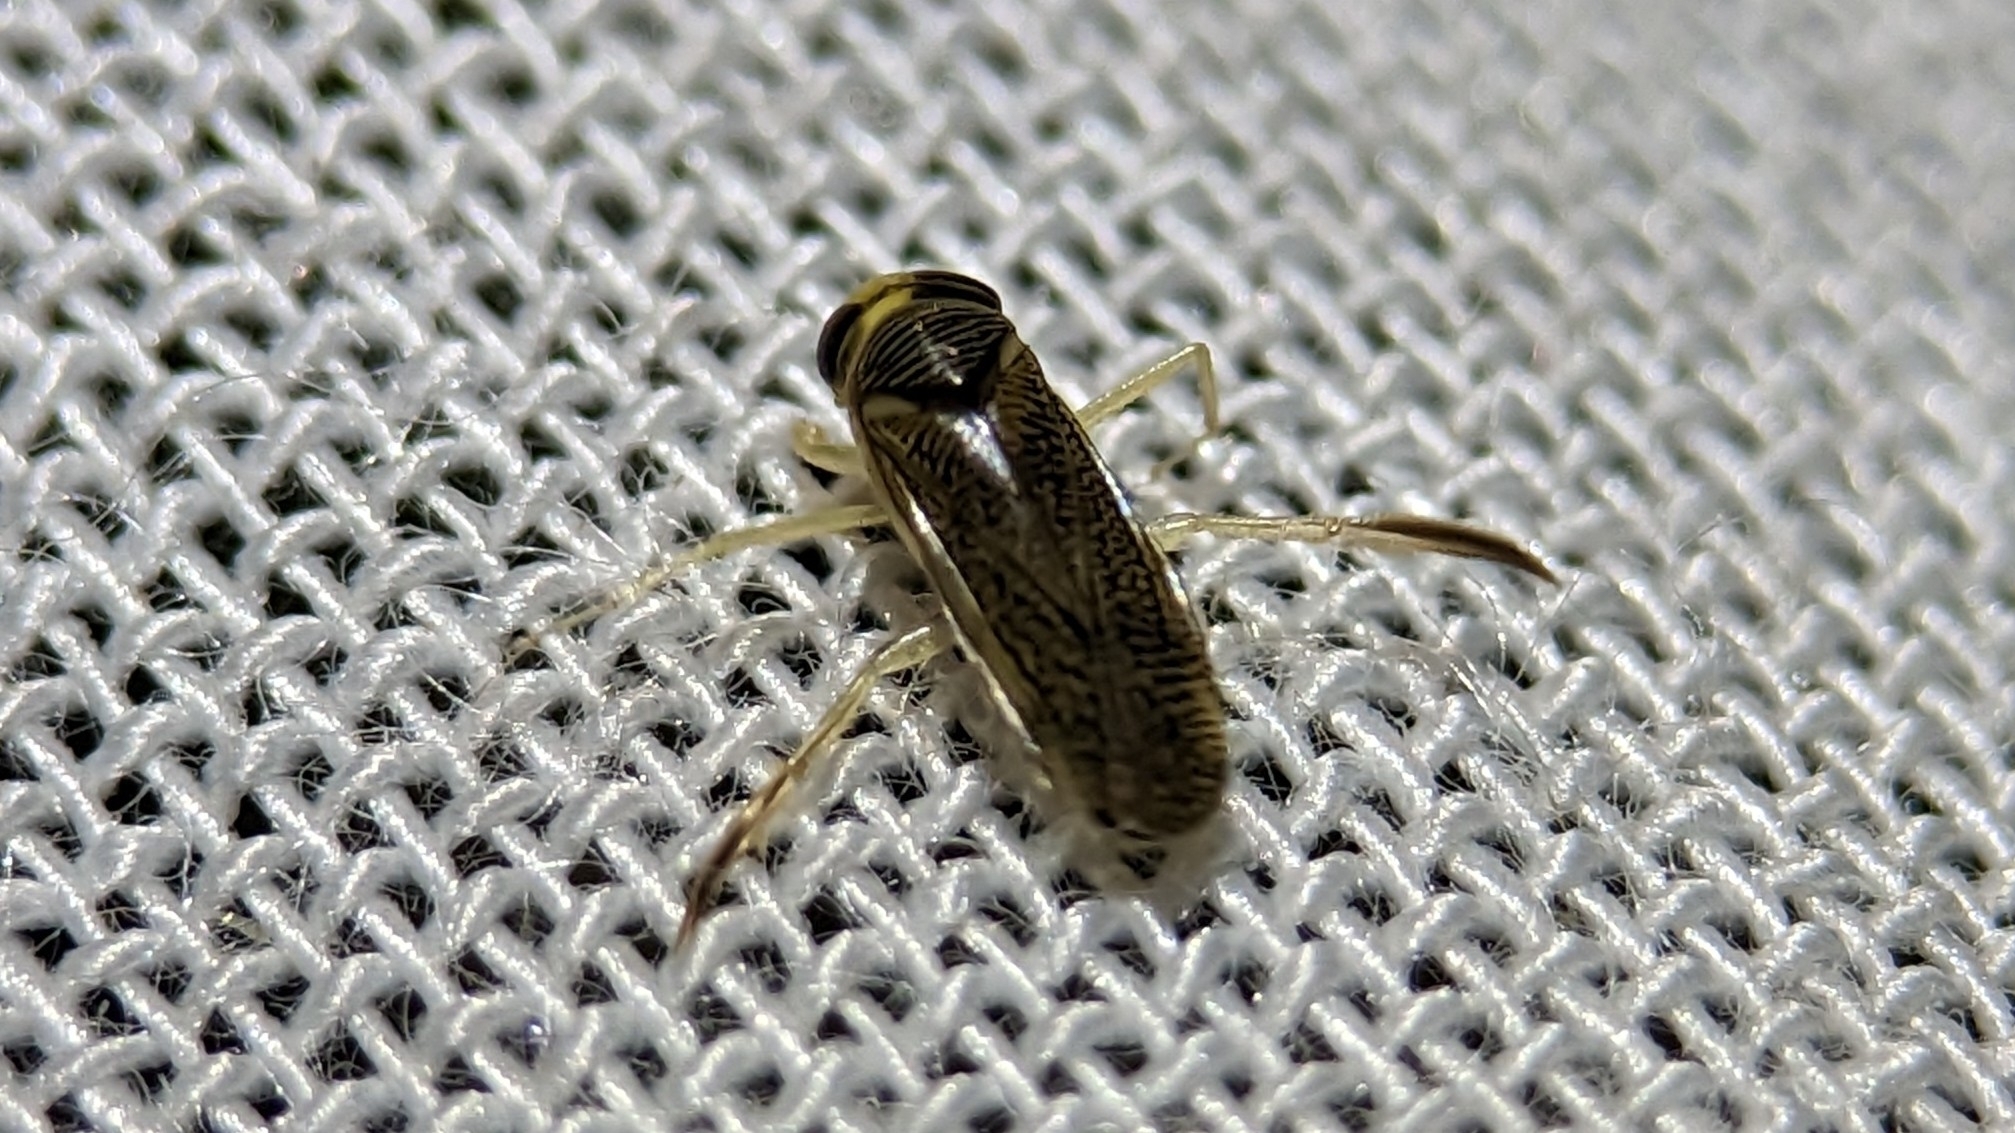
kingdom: Animalia
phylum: Arthropoda
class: Insecta
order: Hemiptera
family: Corixidae
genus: Trichocorixa
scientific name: Trichocorixa
